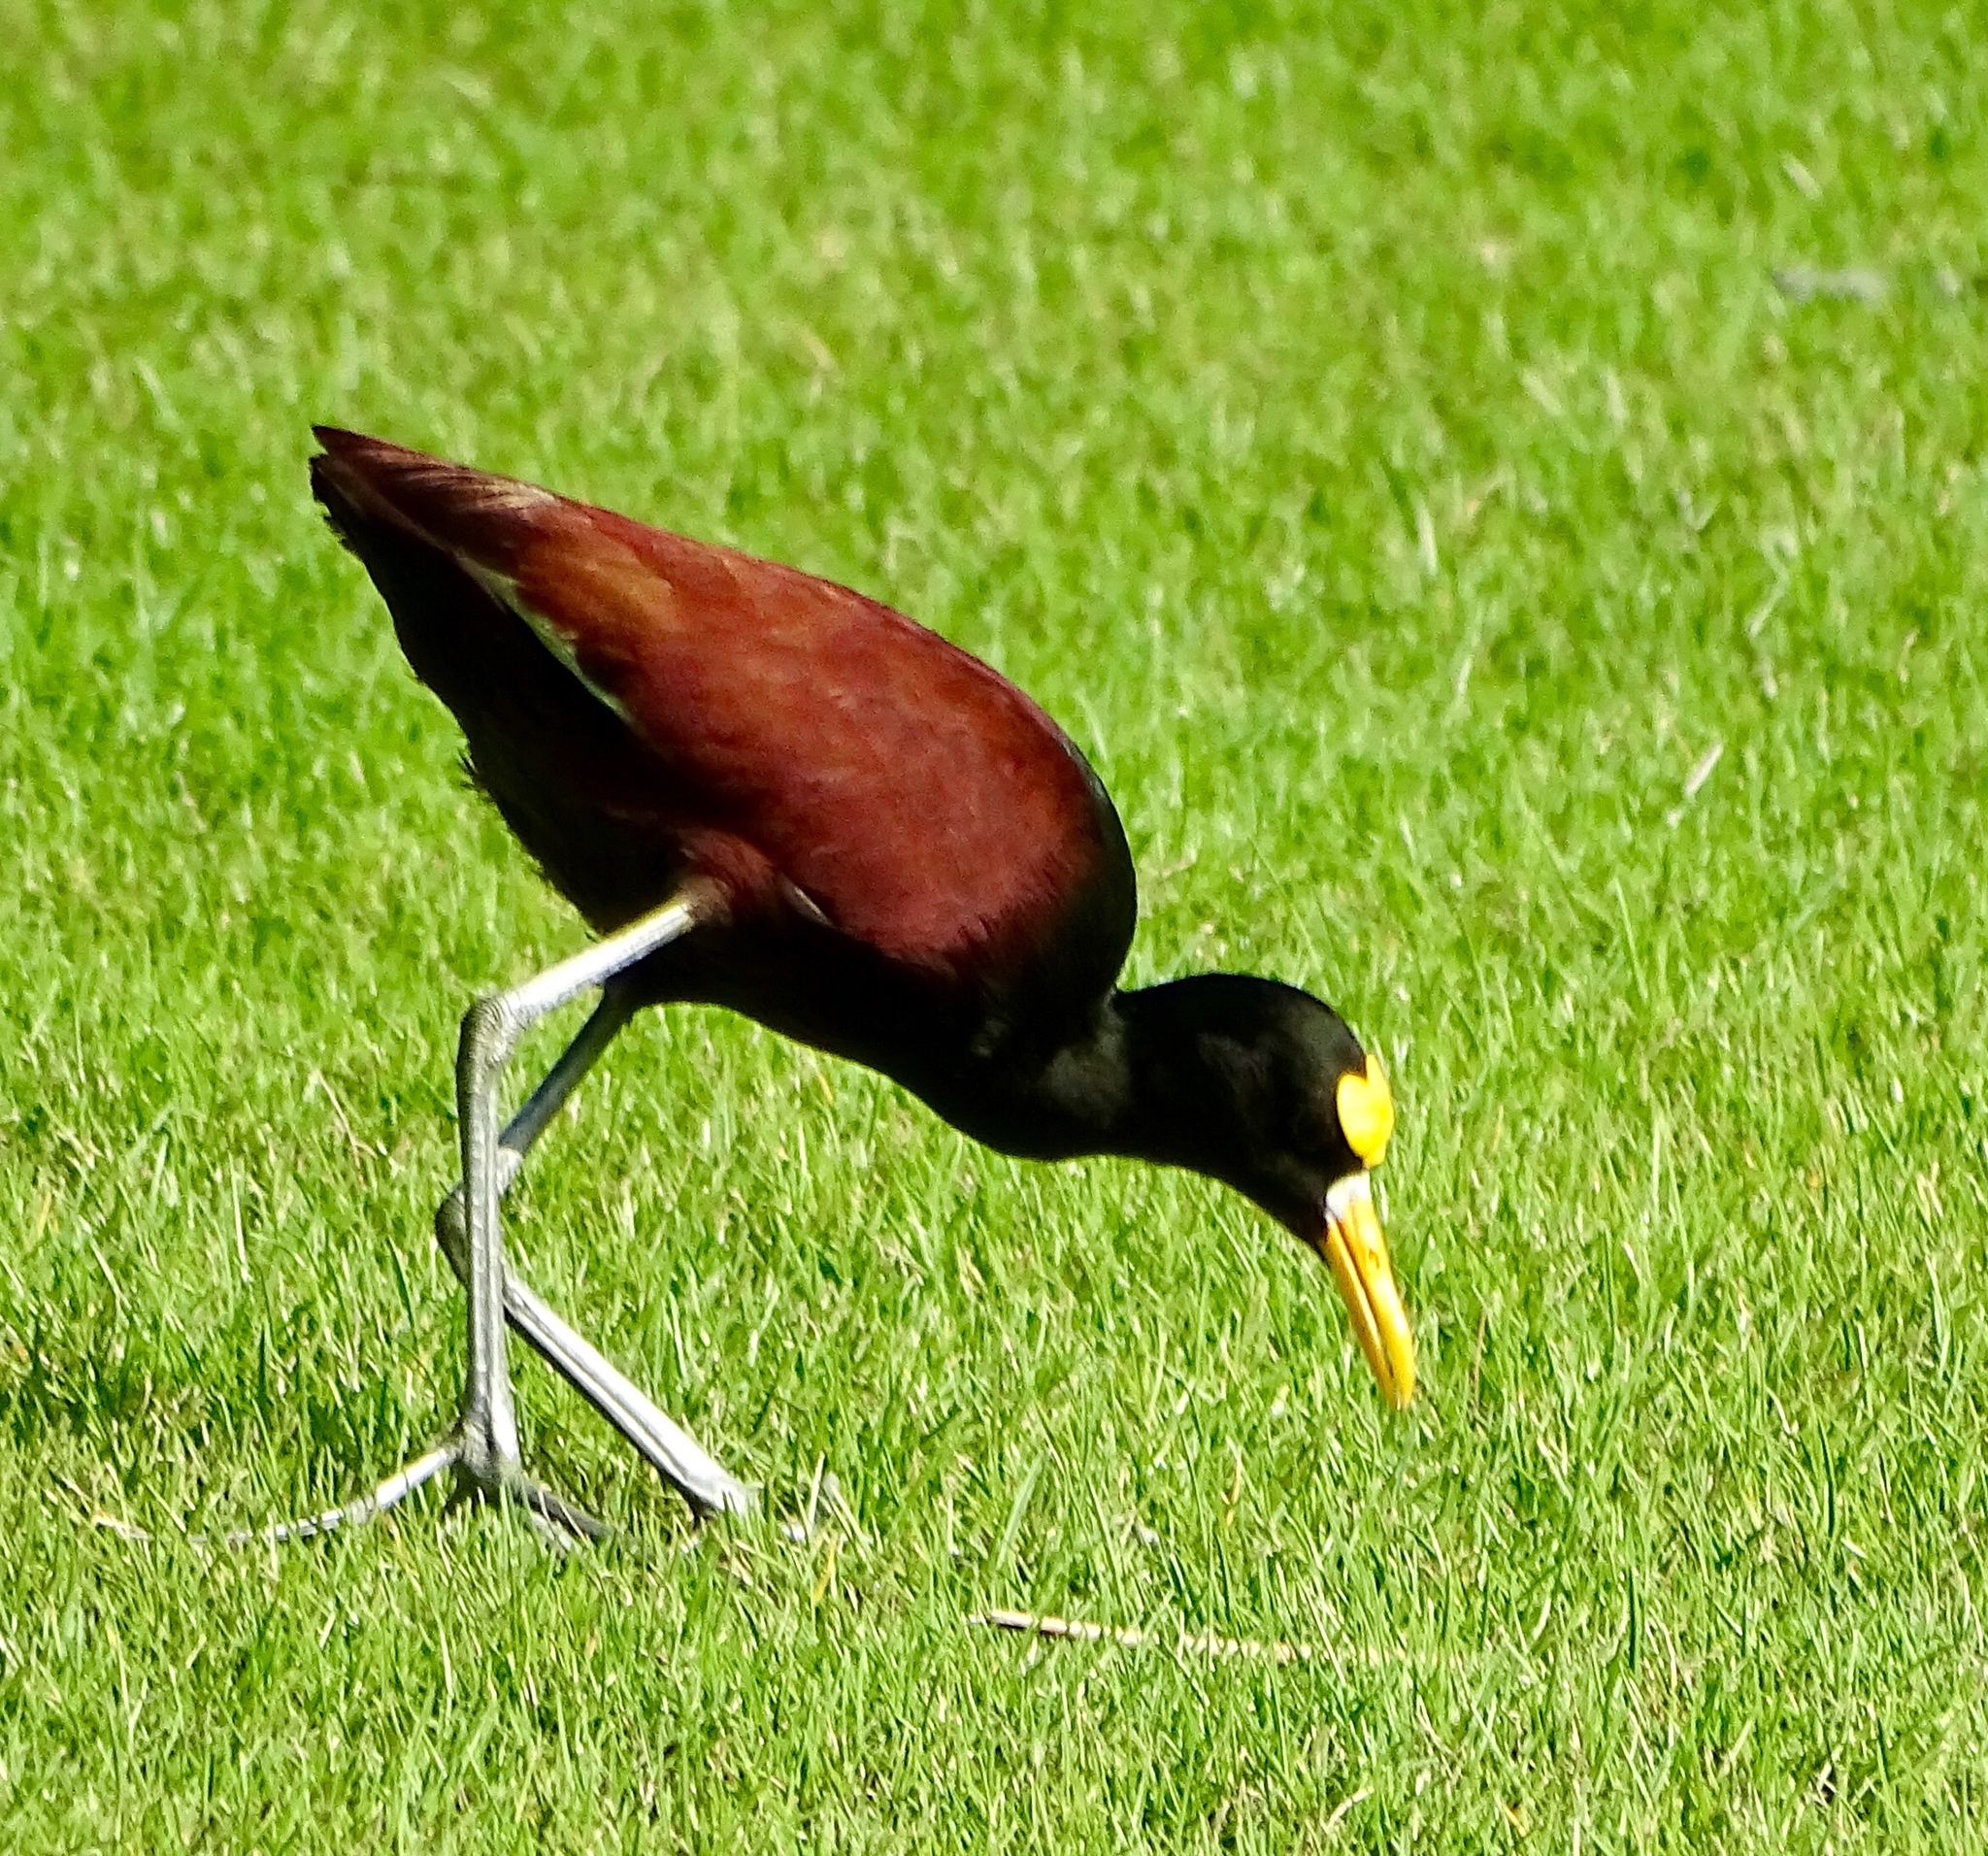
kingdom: Animalia
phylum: Chordata
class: Aves
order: Charadriiformes
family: Jacanidae
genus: Jacana
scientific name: Jacana spinosa
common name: Northern jacana
